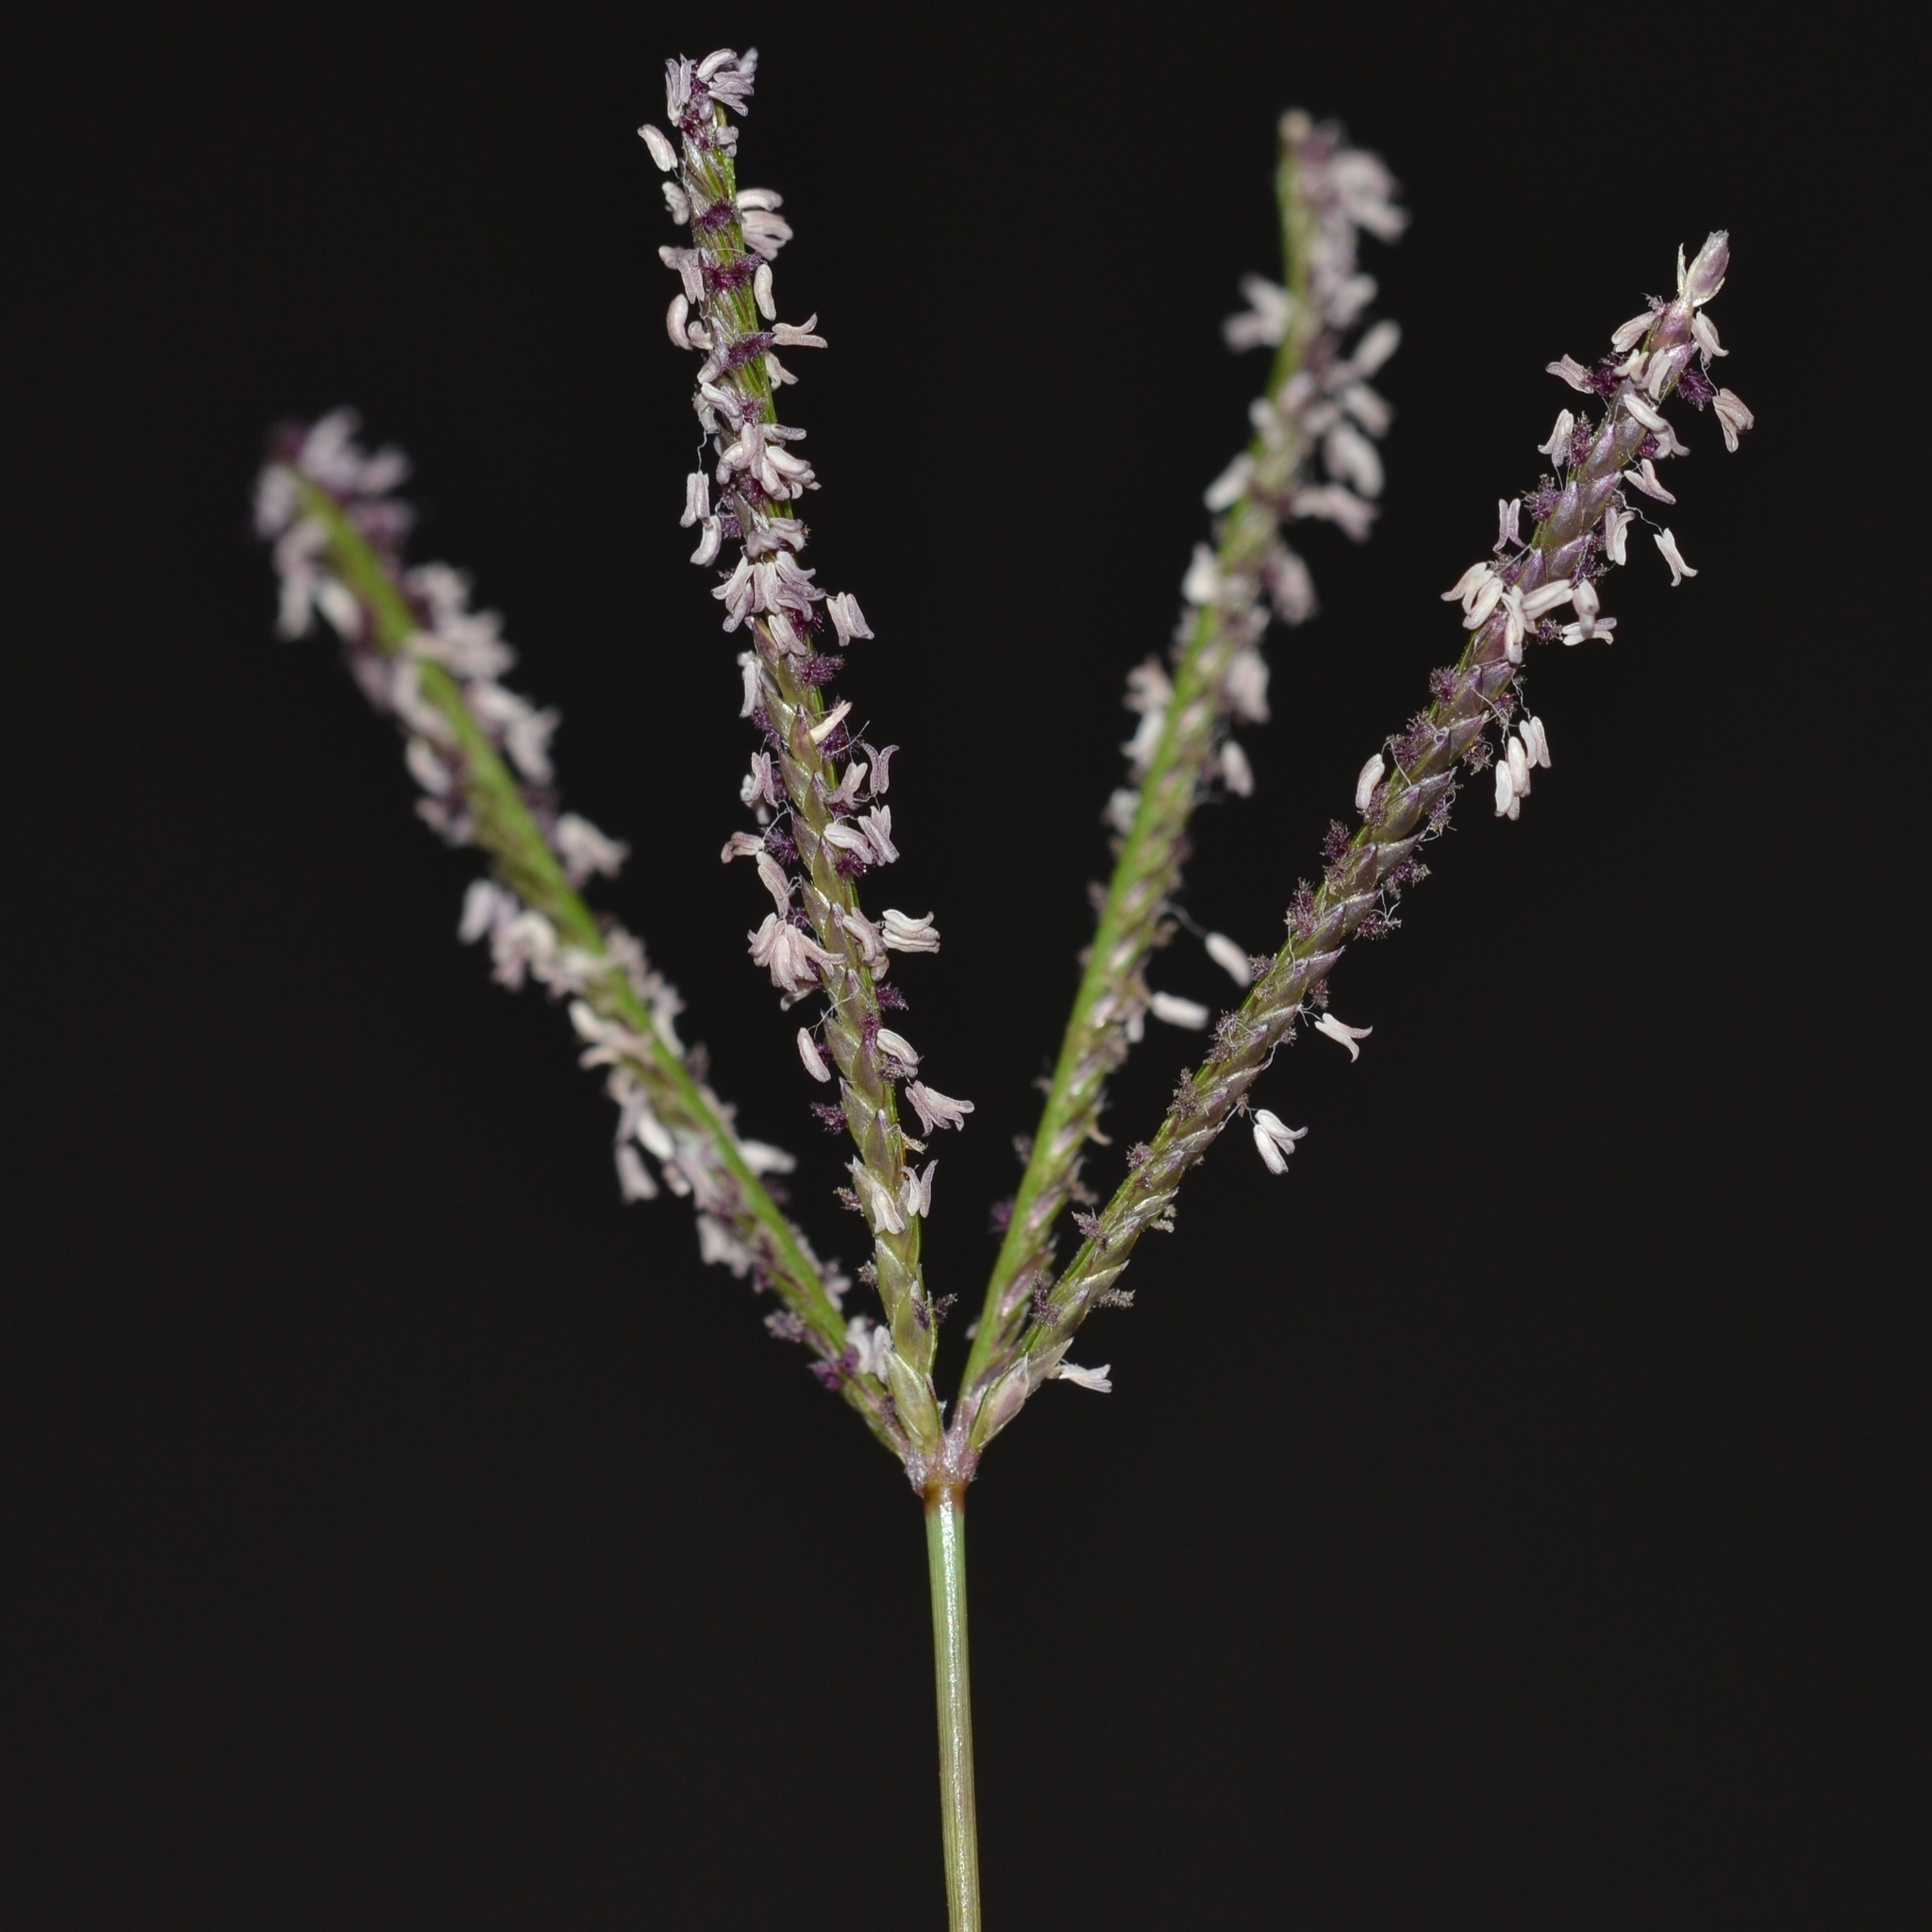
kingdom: Plantae
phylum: Tracheophyta
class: Liliopsida
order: Poales
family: Poaceae
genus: Cynodon
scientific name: Cynodon dactylon
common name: Bermuda grass
